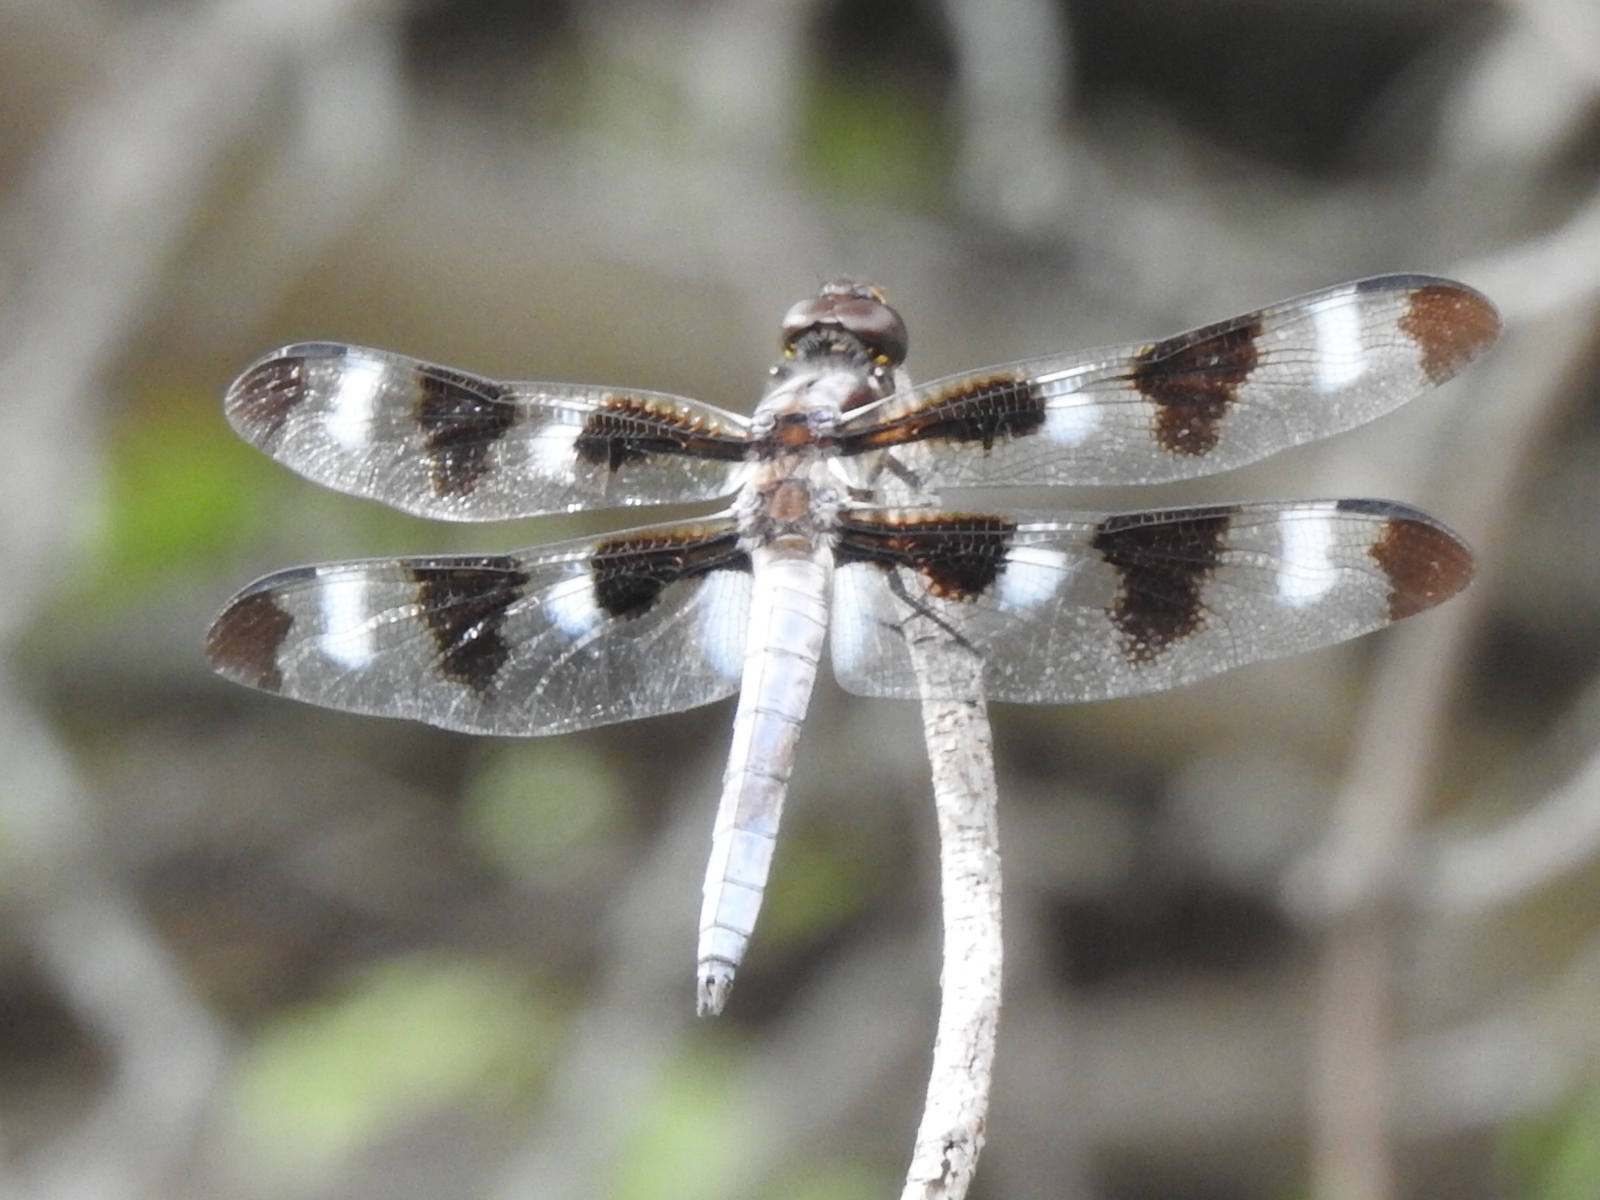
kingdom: Animalia
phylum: Arthropoda
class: Insecta
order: Odonata
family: Libellulidae
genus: Libellula
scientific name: Libellula pulchella
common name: Twelve-spotted skimmer
